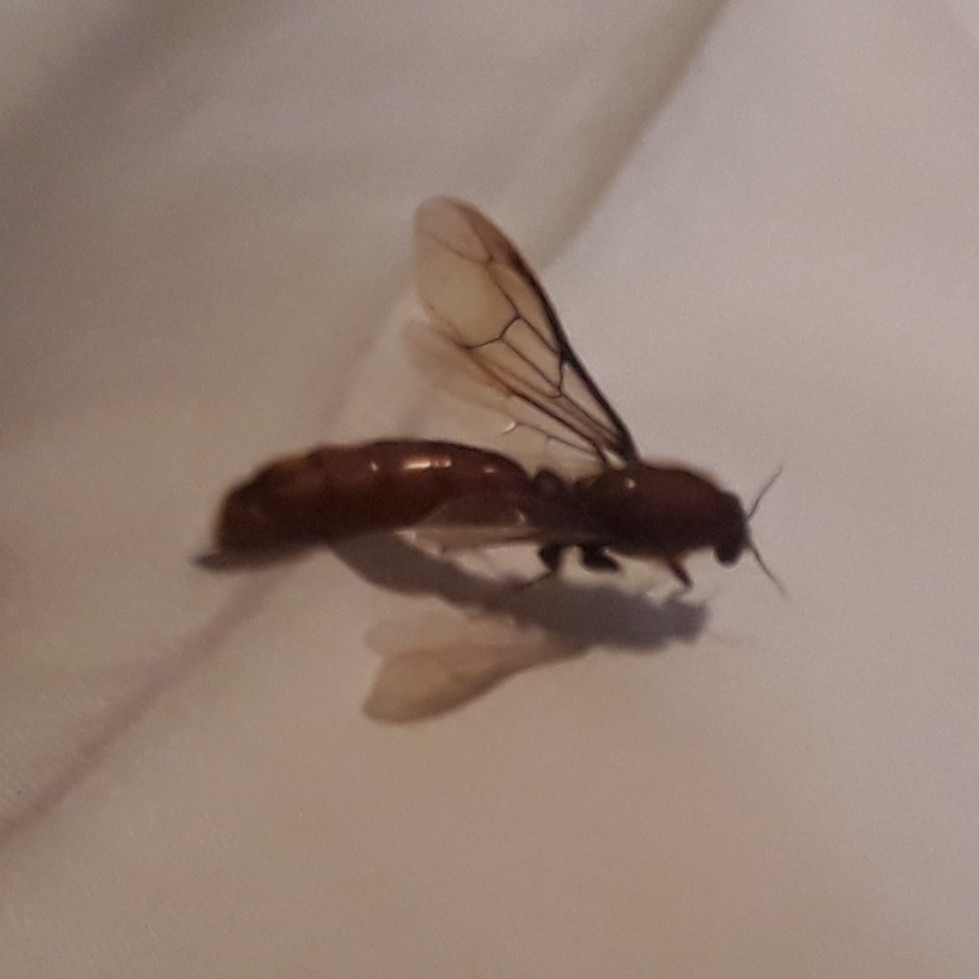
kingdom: Animalia
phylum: Arthropoda
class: Insecta
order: Hymenoptera
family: Formicidae
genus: Dorylus
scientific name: Dorylus helvolus
